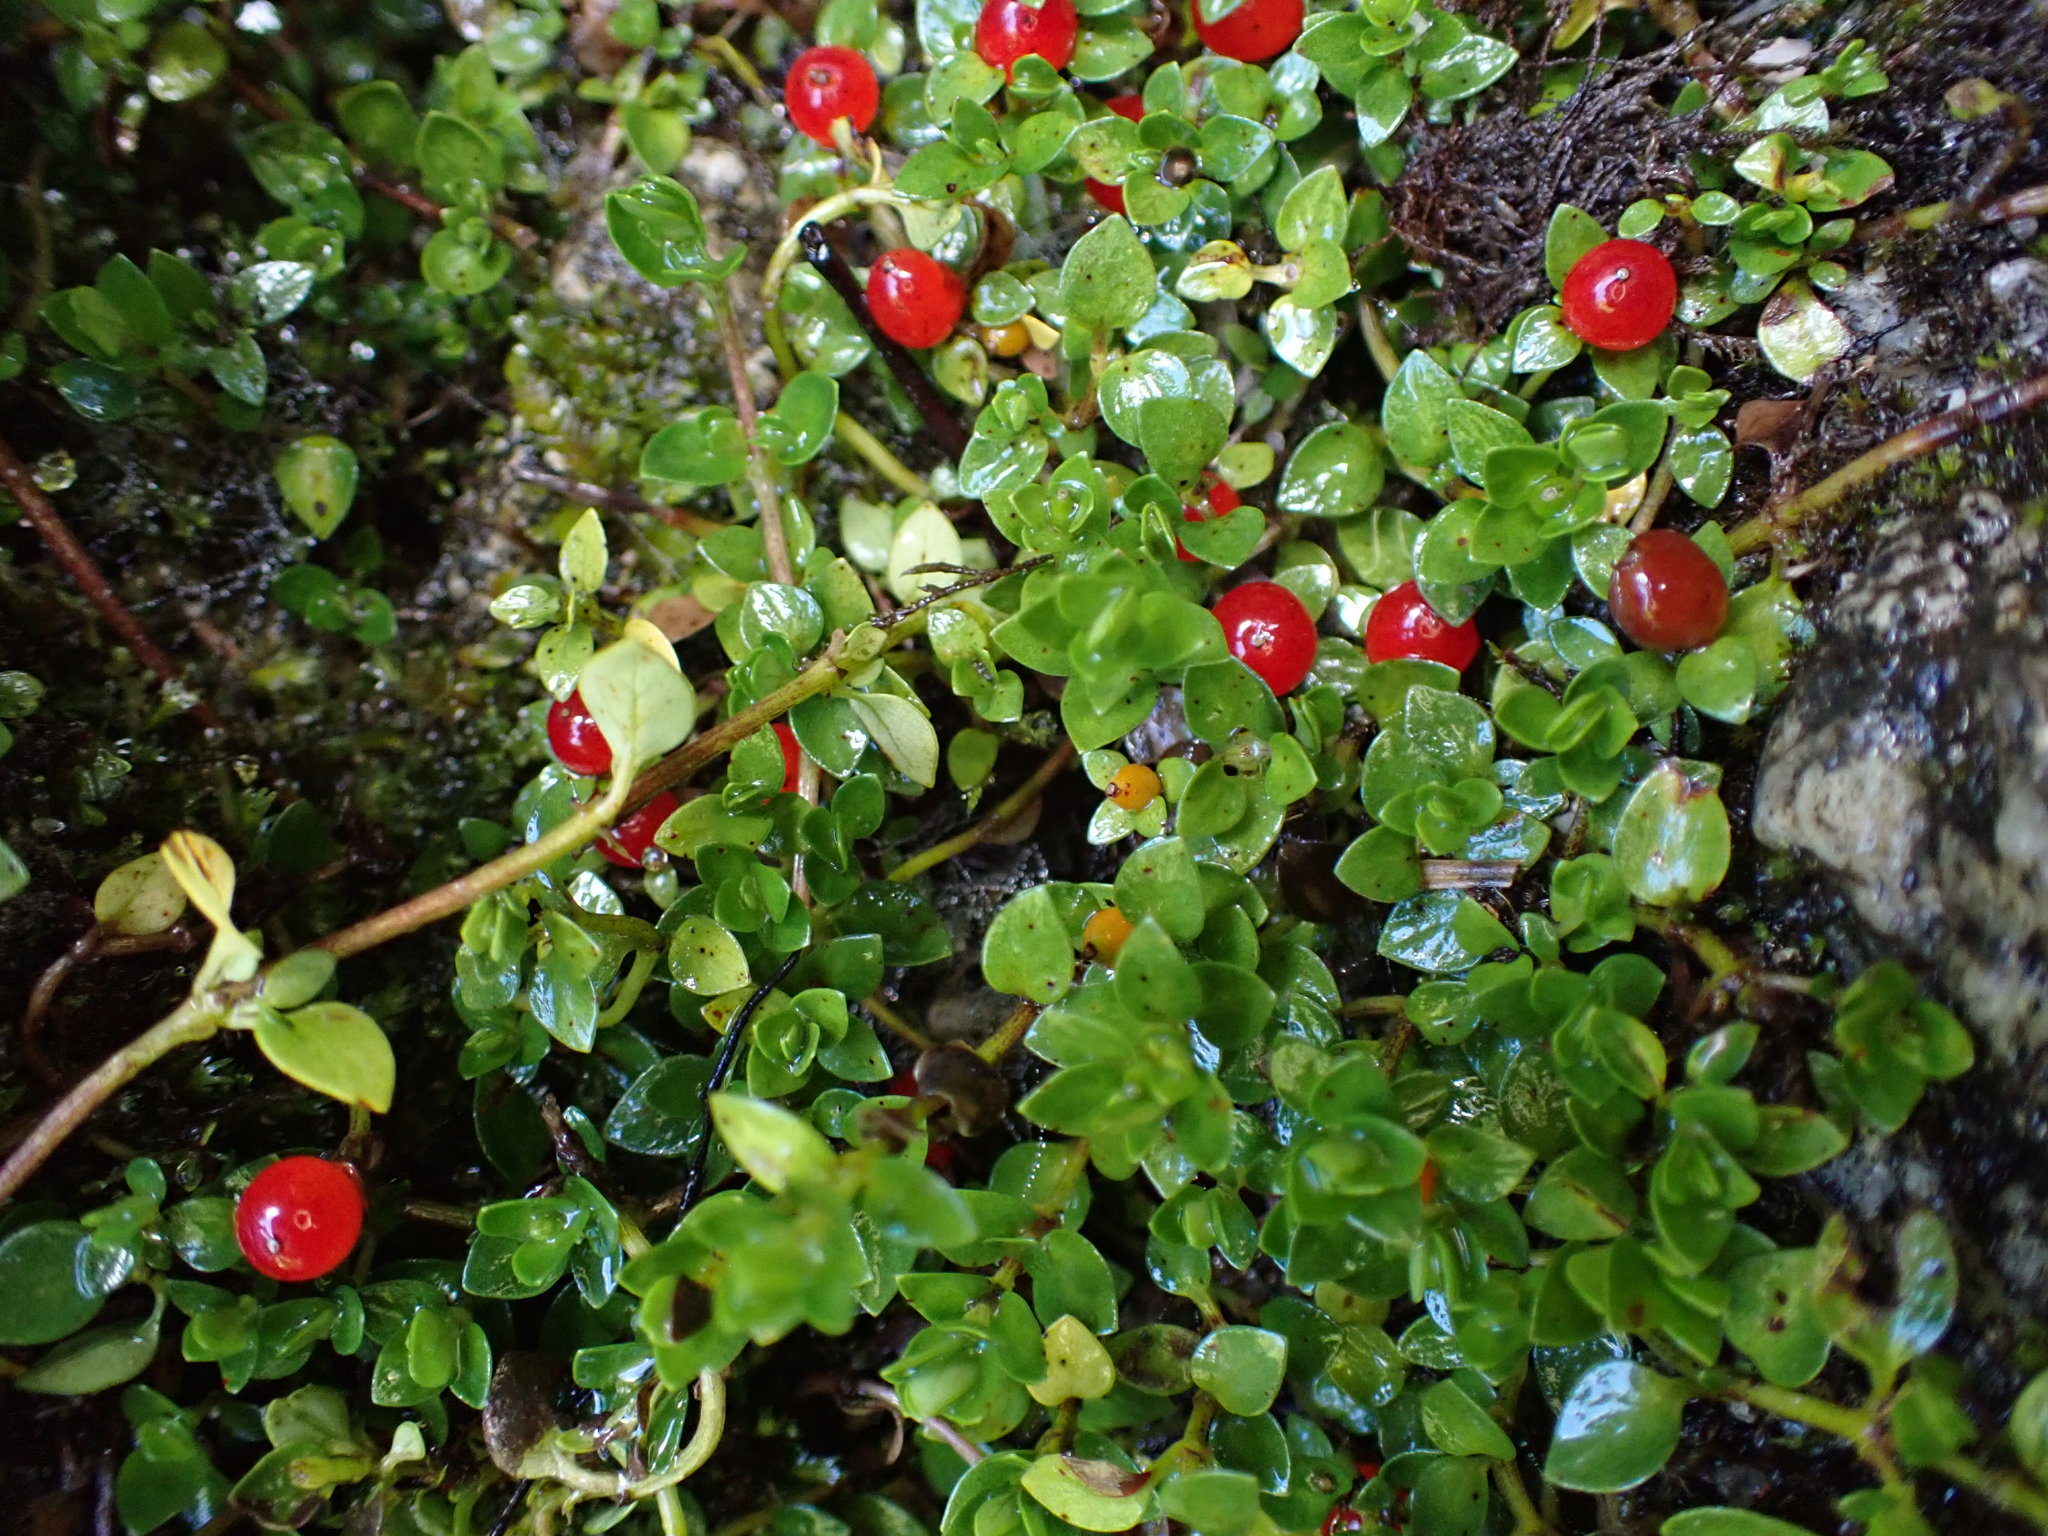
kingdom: Plantae
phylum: Tracheophyta
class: Magnoliopsida
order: Gentianales
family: Rubiaceae
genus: Nertera
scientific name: Nertera granadensis
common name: Beadplant
